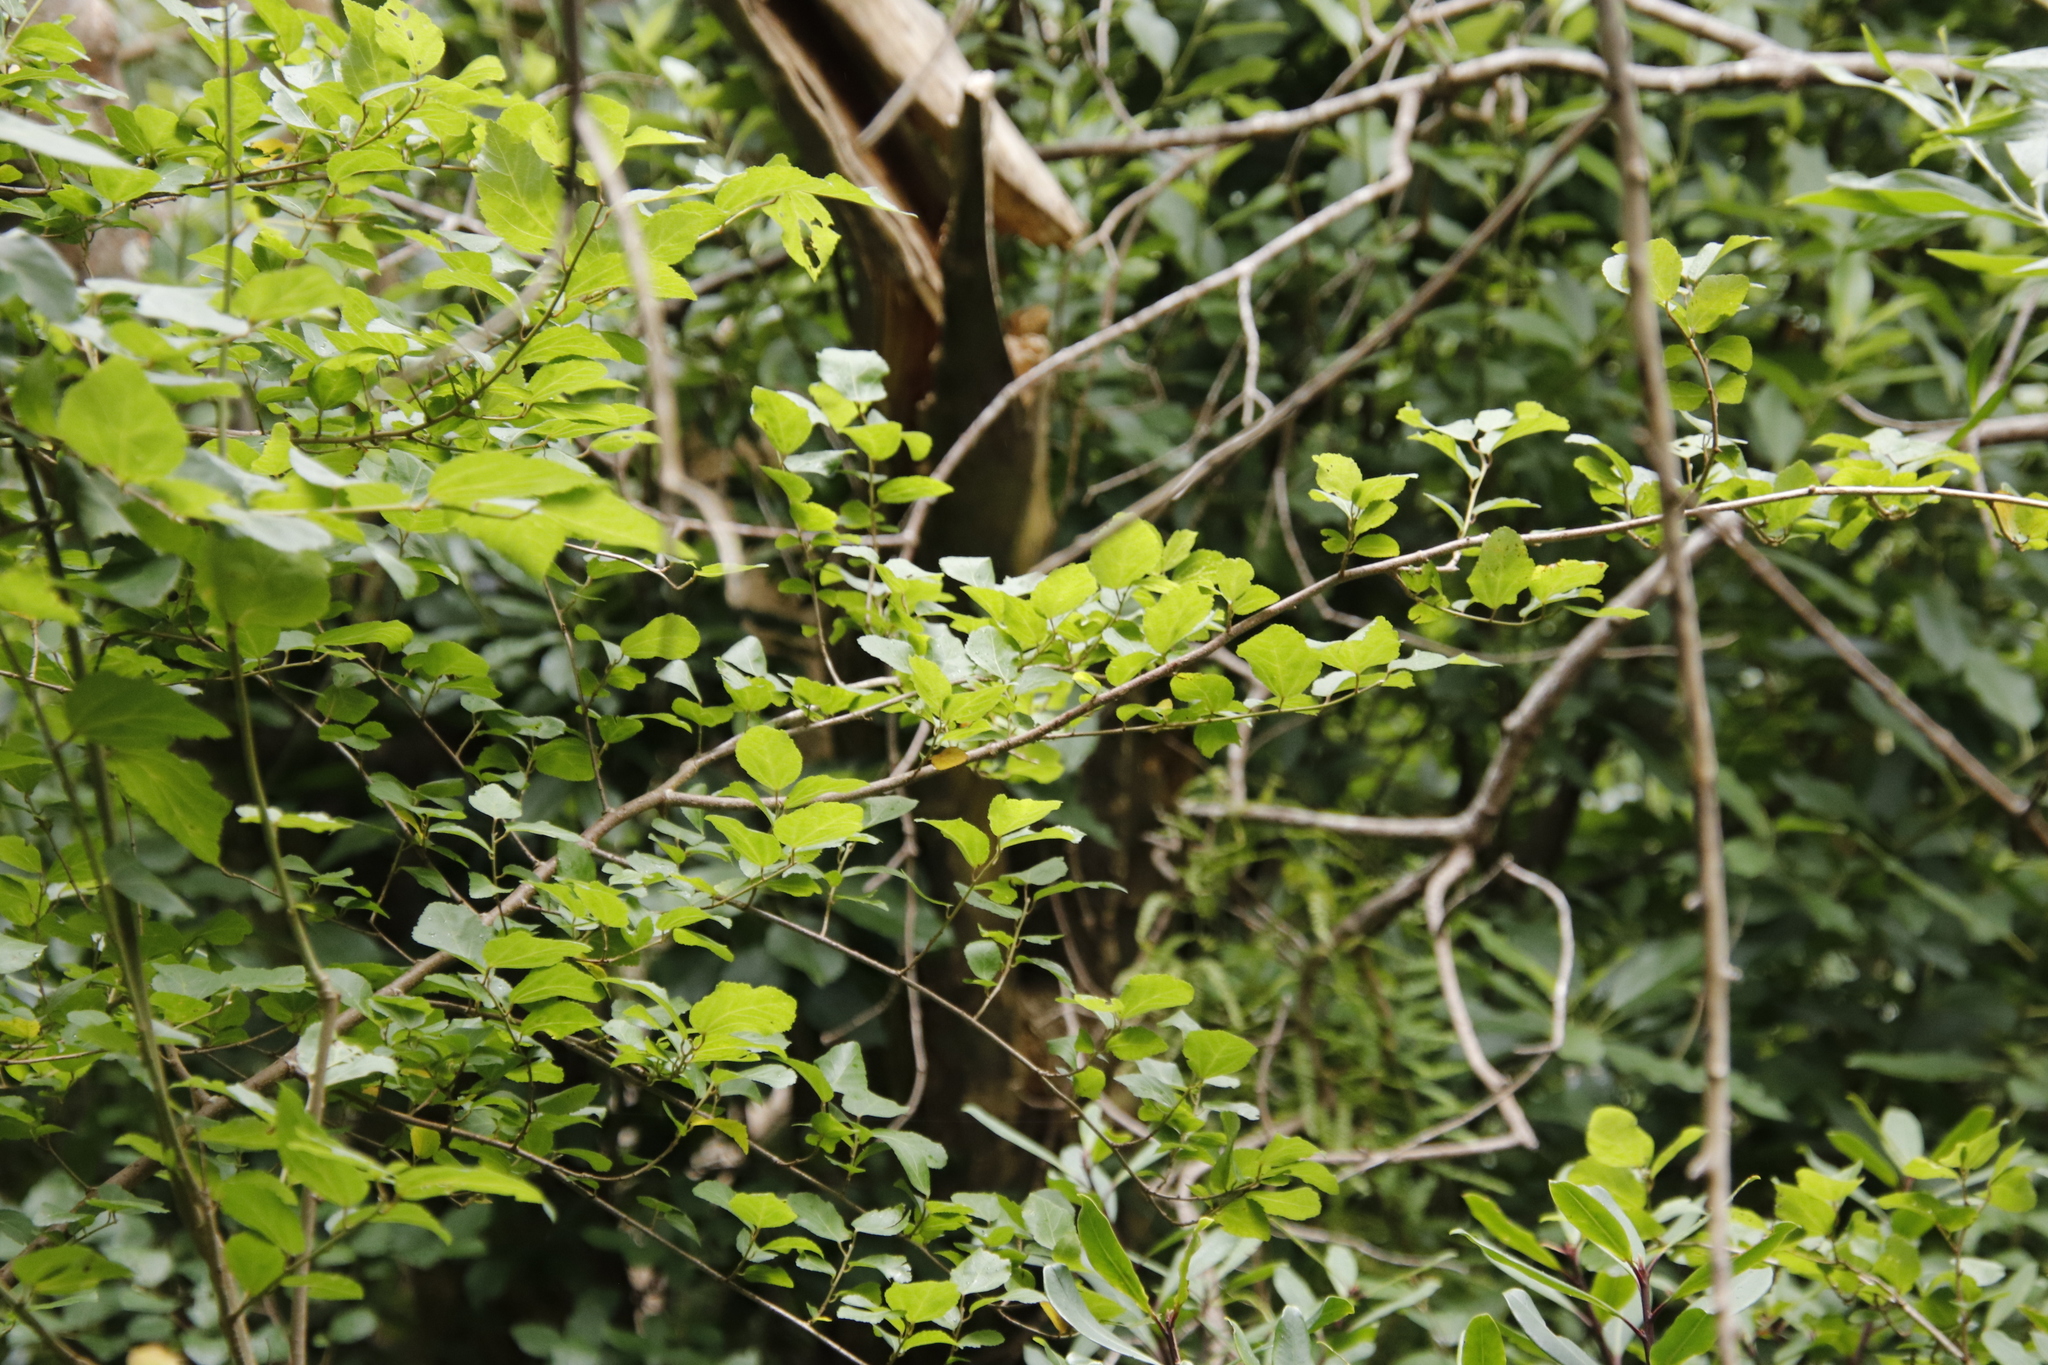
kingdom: Plantae
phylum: Tracheophyta
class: Magnoliopsida
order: Malvales
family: Malvaceae
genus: Grewia
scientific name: Grewia occidentalis
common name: Crossberry
